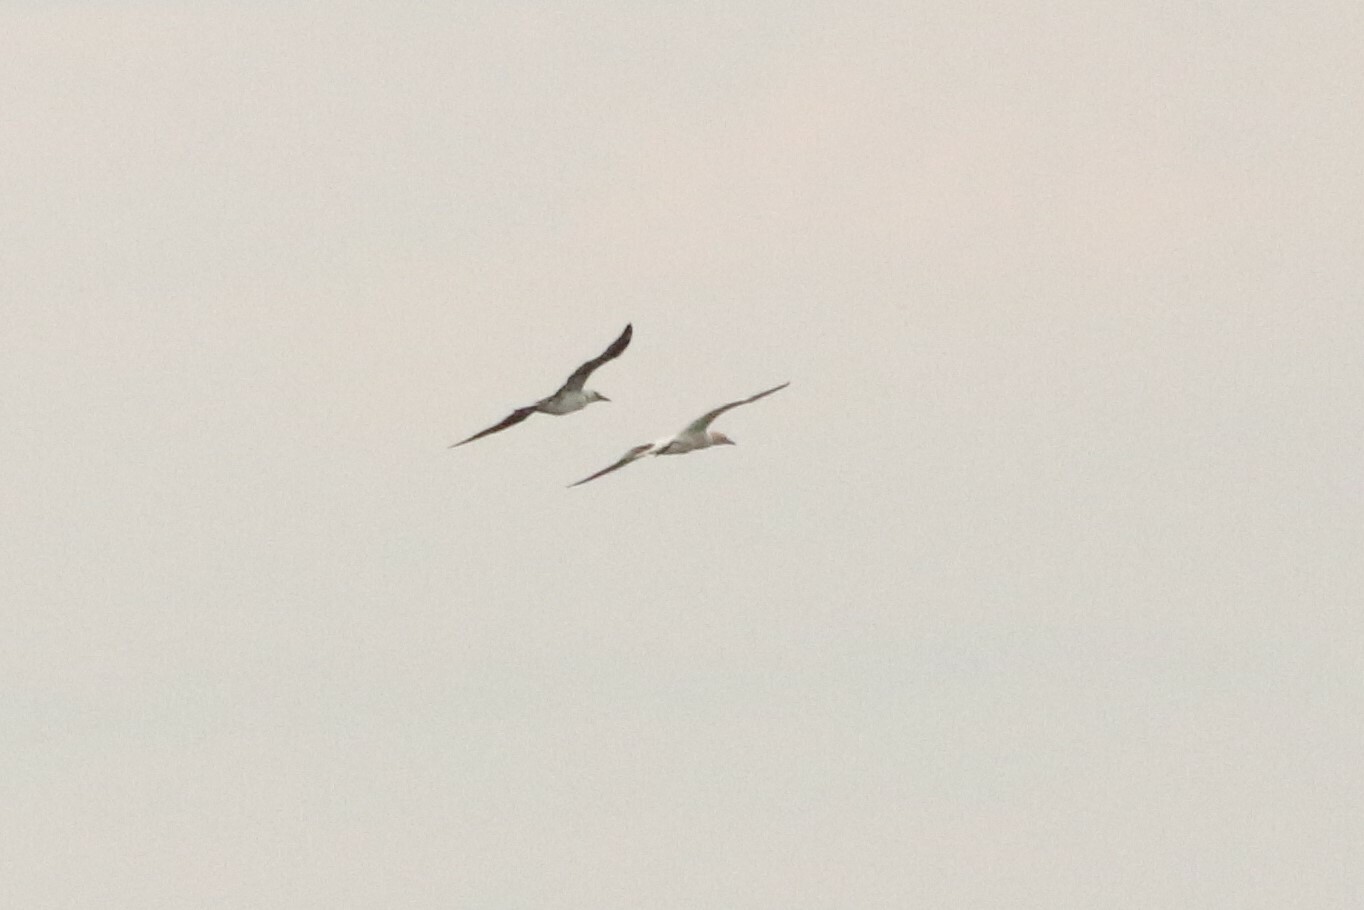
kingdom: Animalia
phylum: Chordata
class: Aves
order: Suliformes
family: Sulidae
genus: Morus
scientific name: Morus bassanus
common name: Northern gannet
